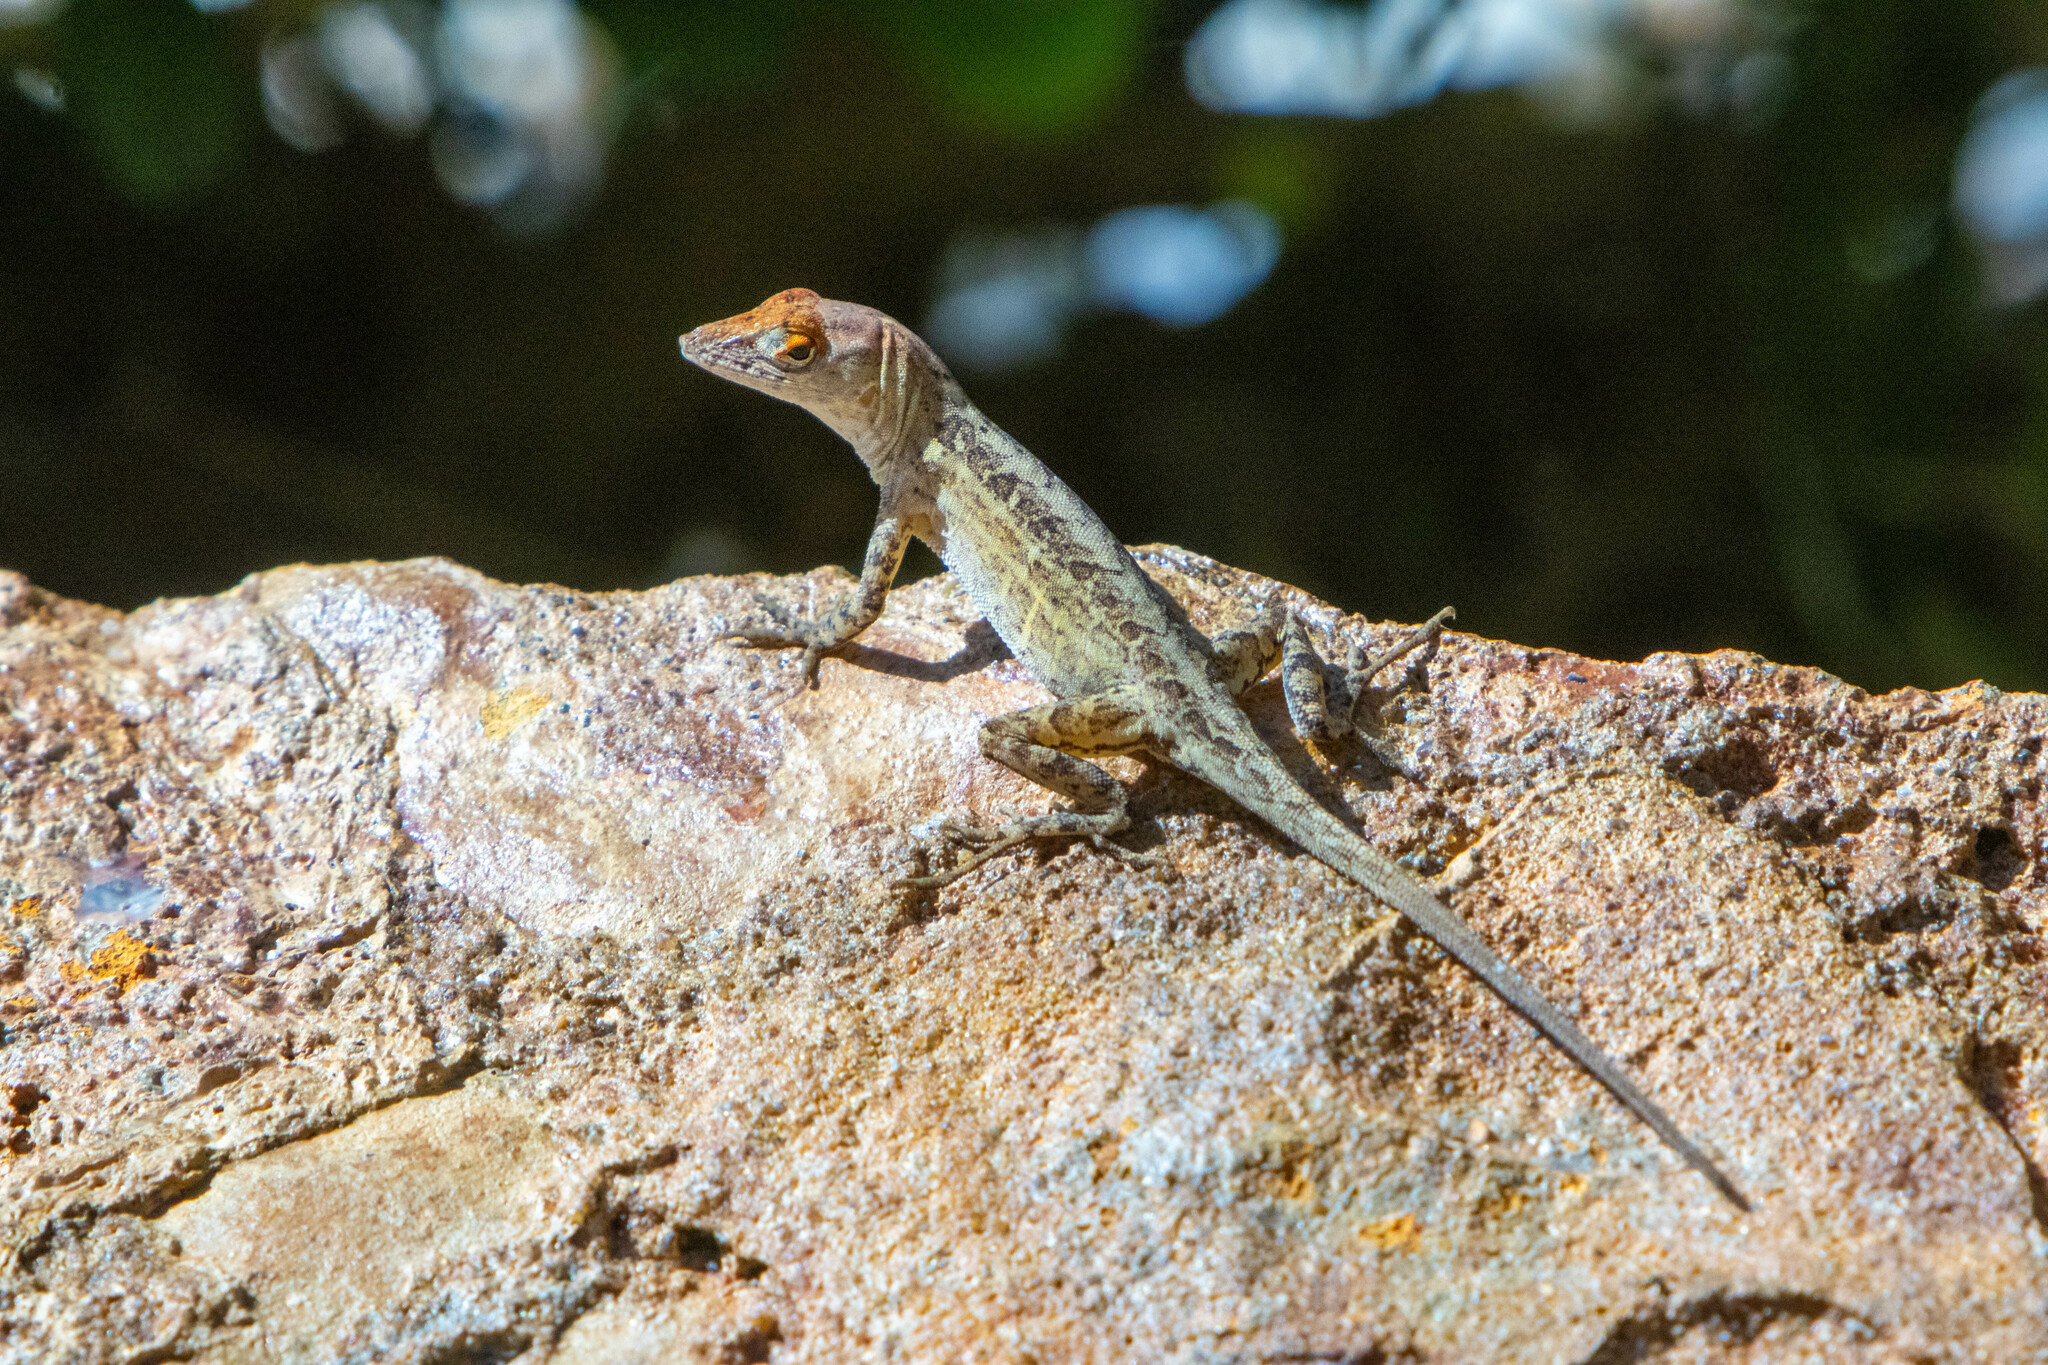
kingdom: Animalia
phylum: Chordata
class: Squamata
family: Dactyloidae
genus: Anolis
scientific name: Anolis sagrei
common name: Brown anole
